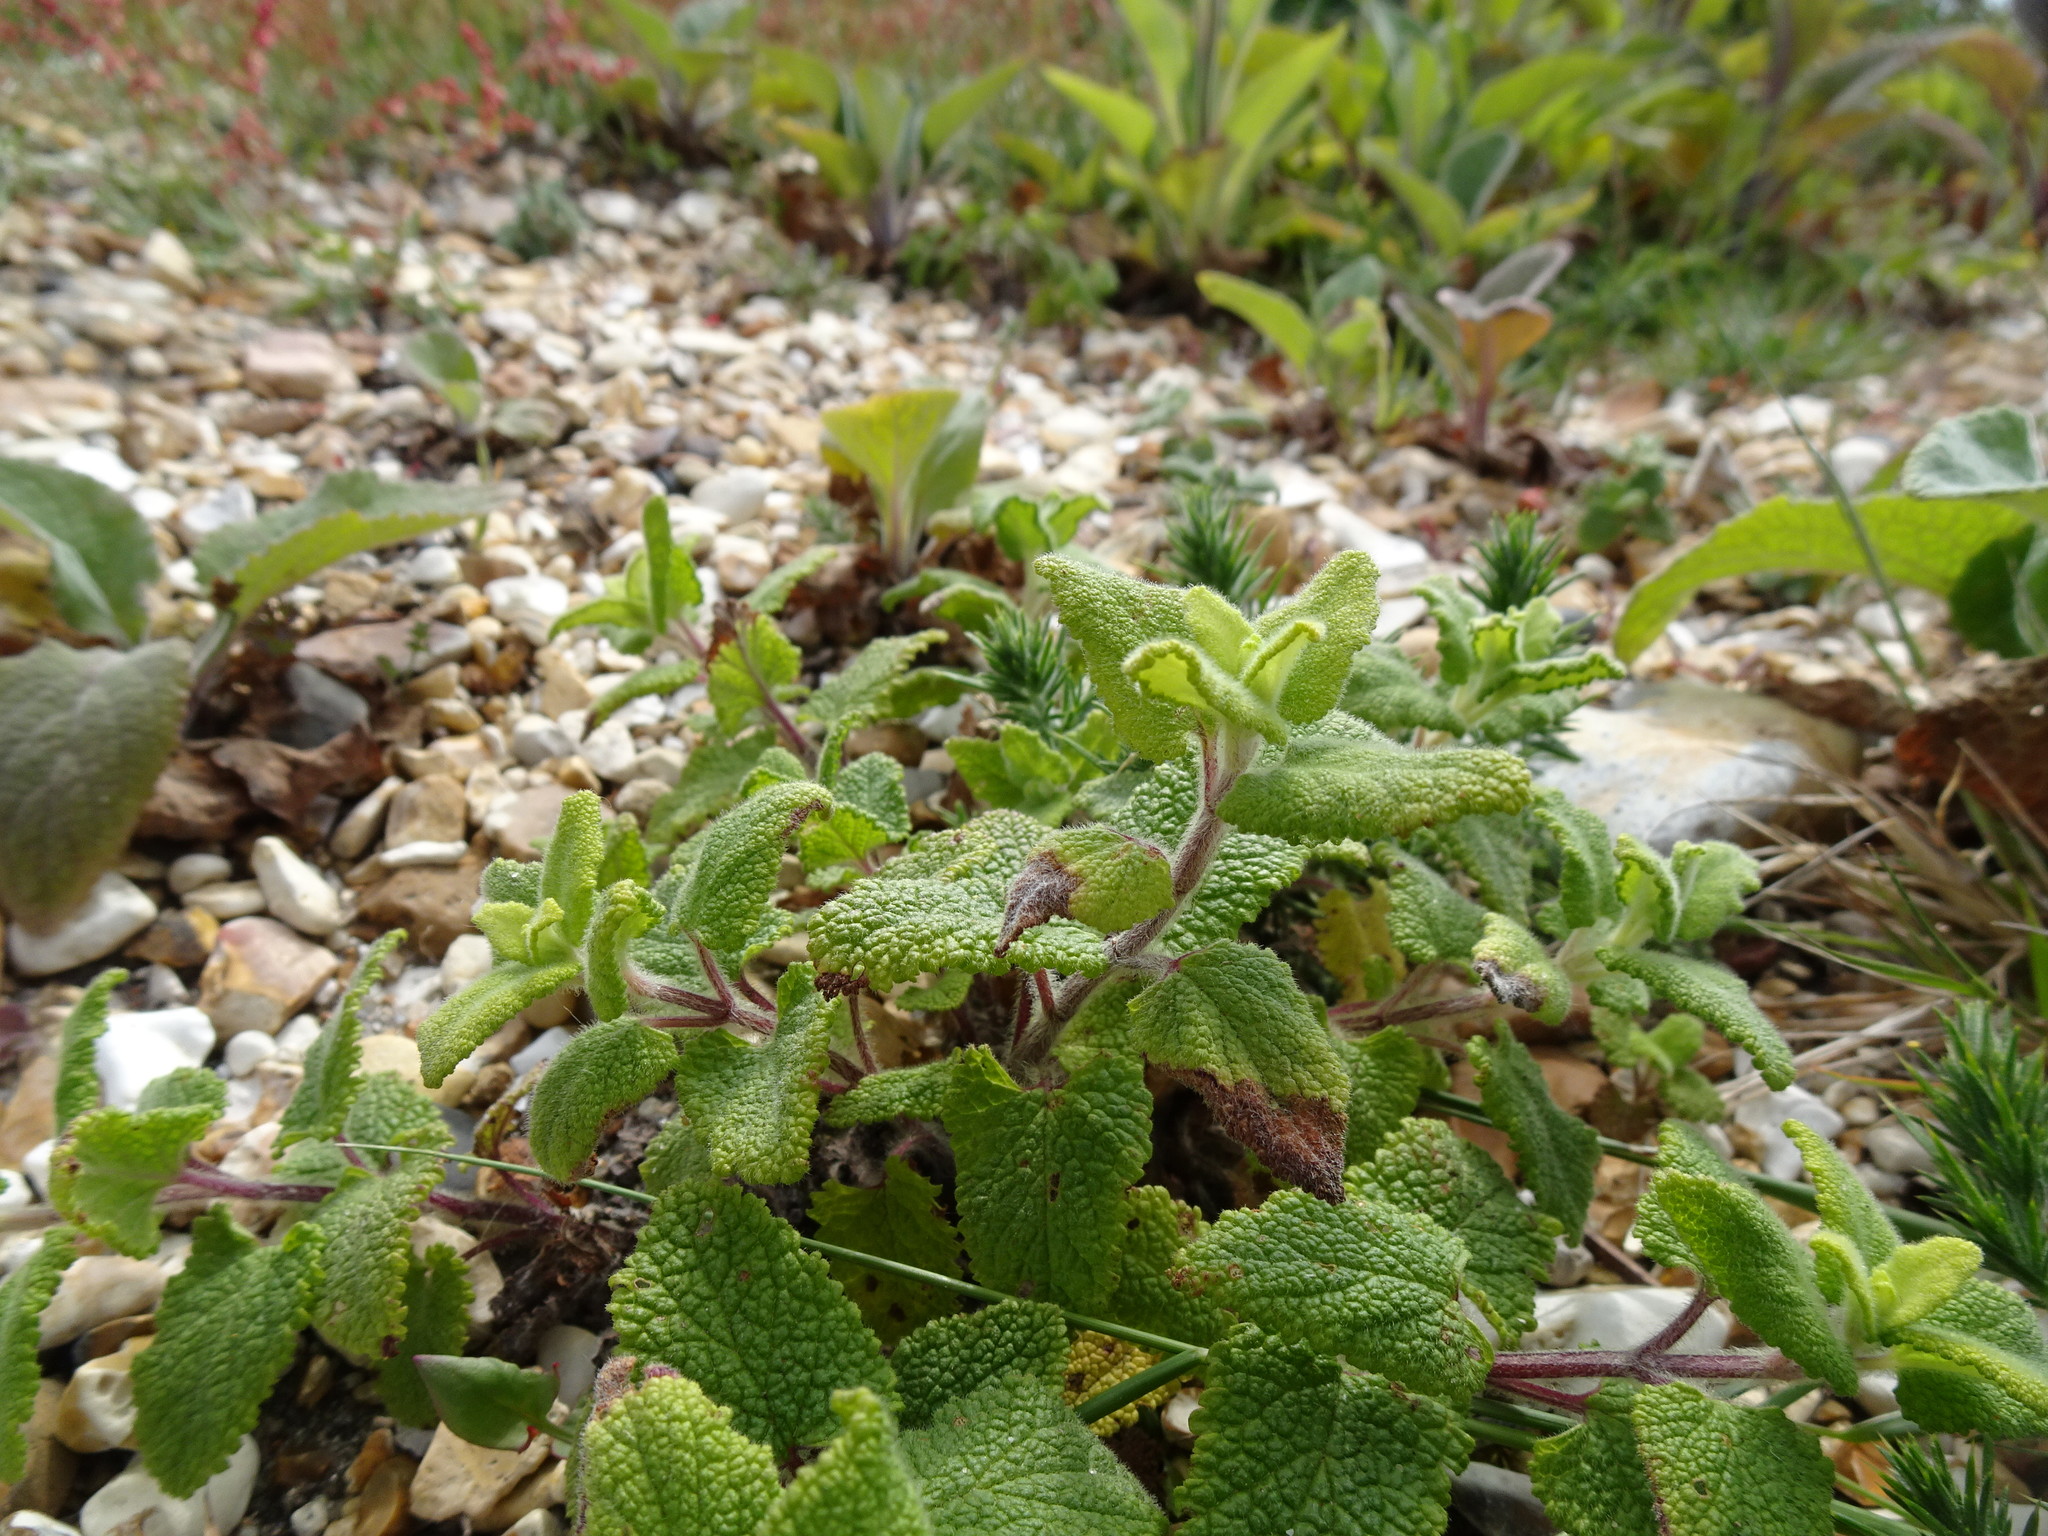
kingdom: Plantae
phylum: Tracheophyta
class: Magnoliopsida
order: Lamiales
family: Lamiaceae
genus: Teucrium
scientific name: Teucrium scorodonia
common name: Woodland germander
